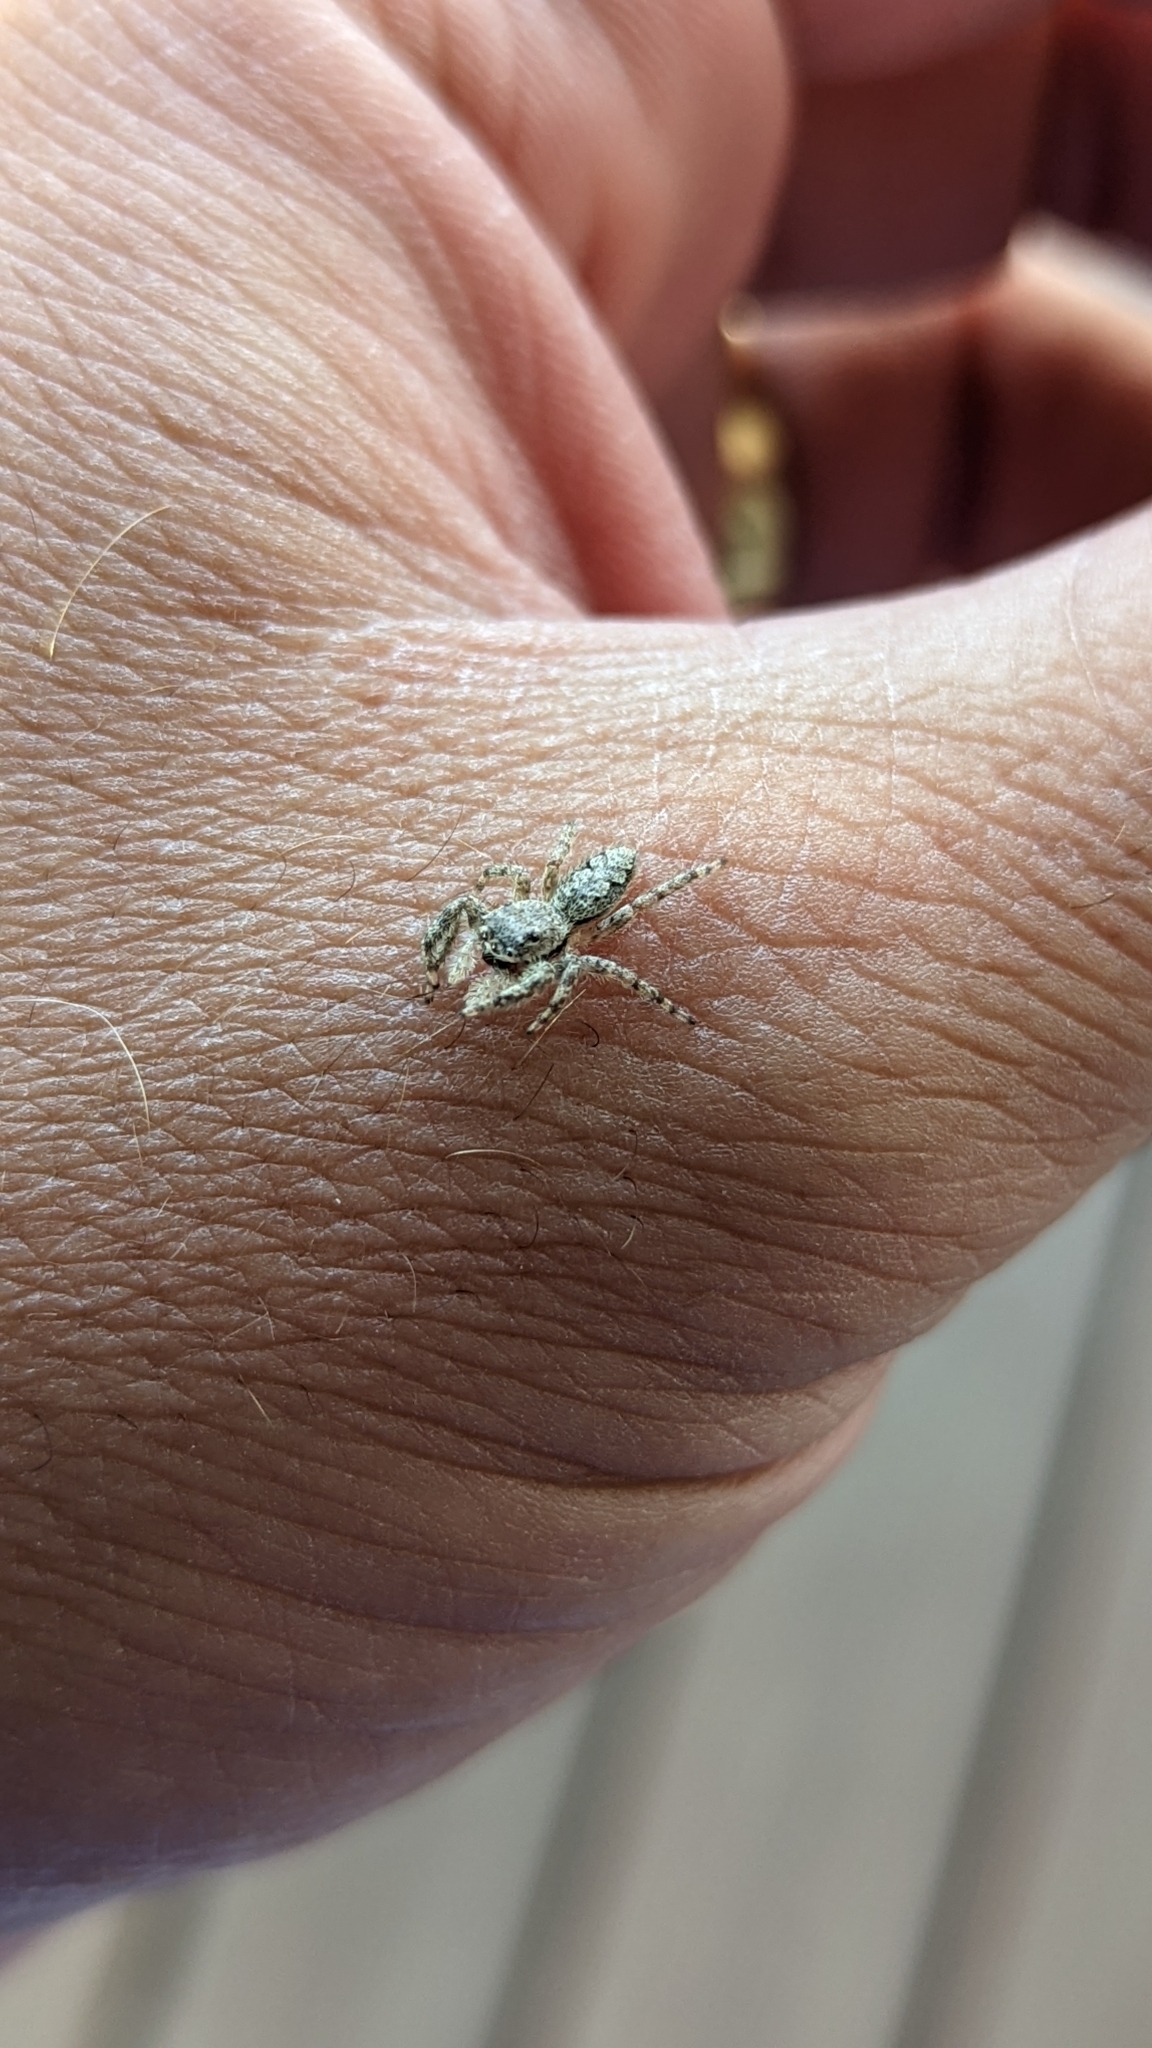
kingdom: Animalia
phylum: Arthropoda
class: Arachnida
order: Araneae
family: Salticidae
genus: Platycryptus
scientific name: Platycryptus undatus
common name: Tan jumping spider
